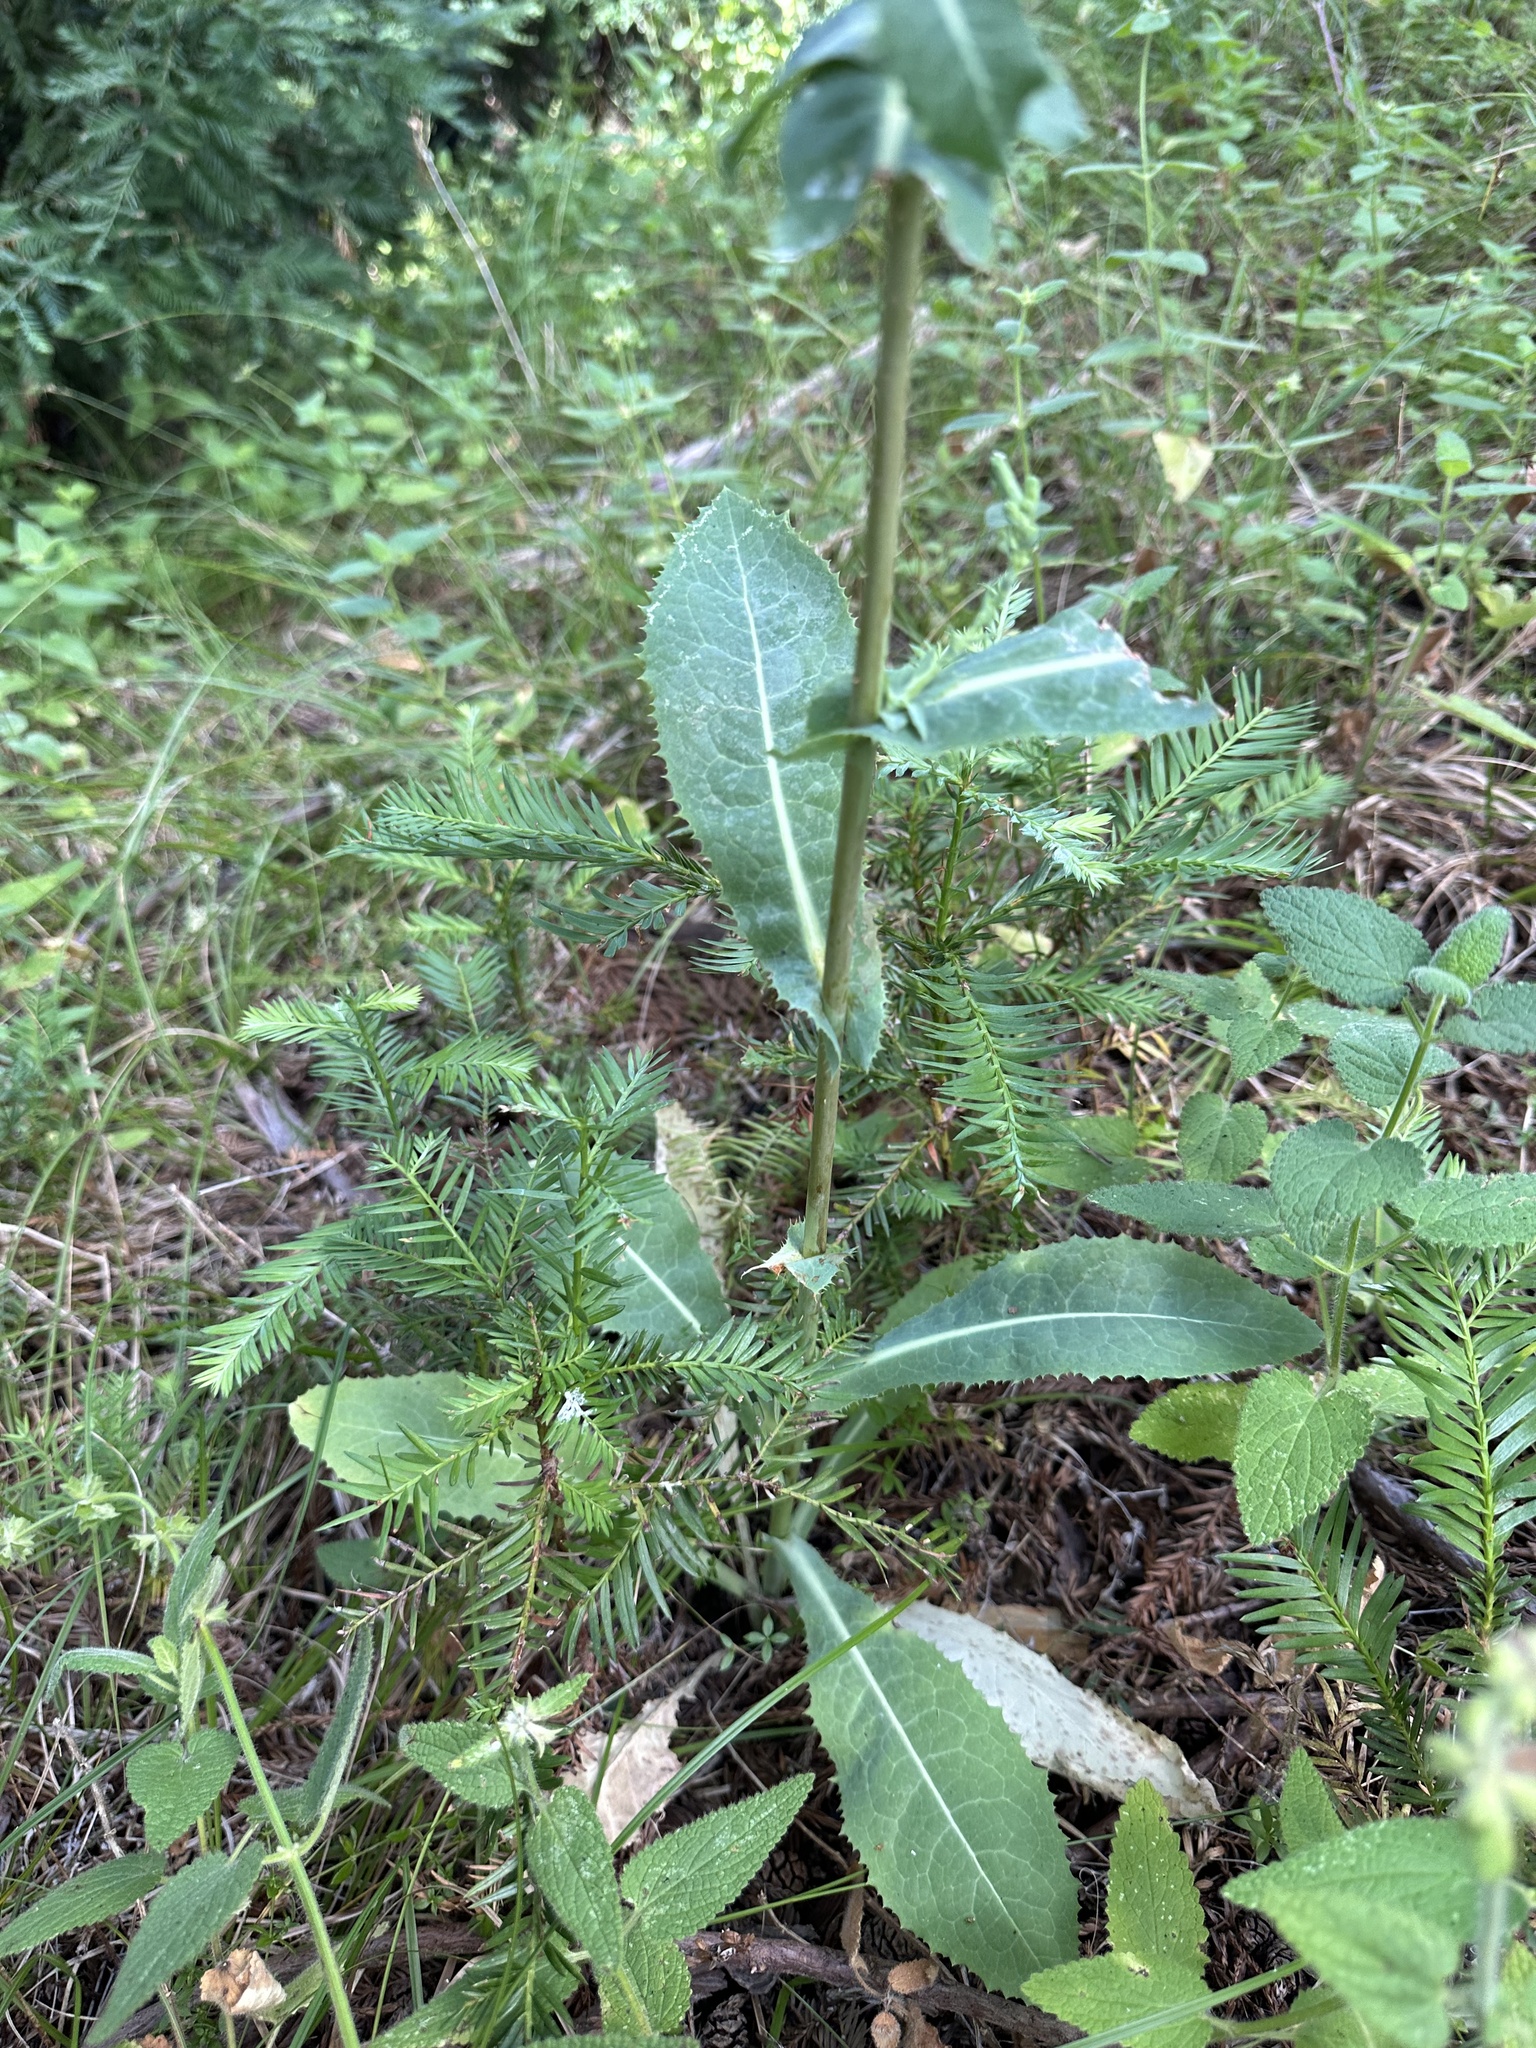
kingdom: Plantae
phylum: Tracheophyta
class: Magnoliopsida
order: Asterales
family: Asteraceae
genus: Lactuca
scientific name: Lactuca virosa
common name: Great lettuce
